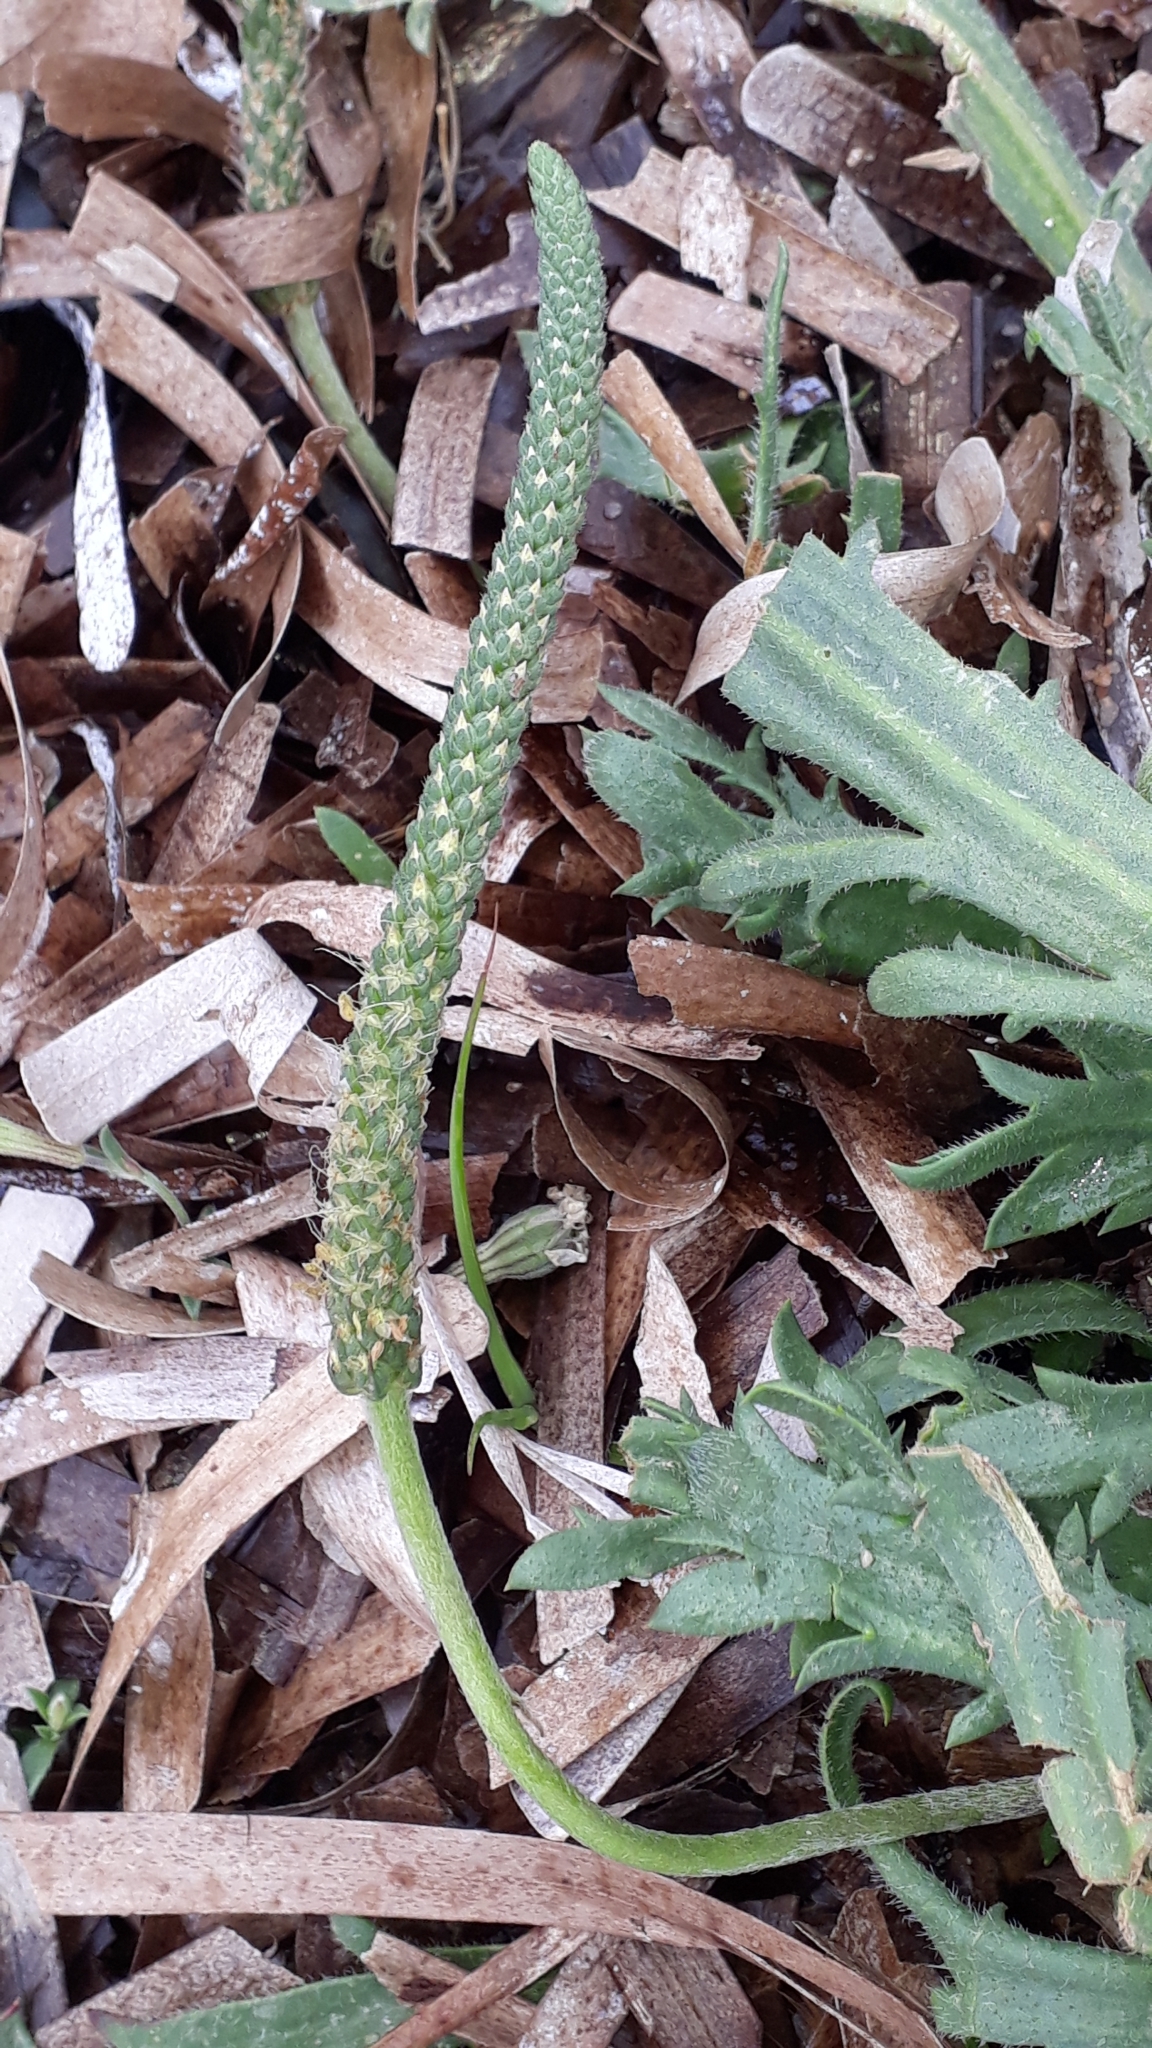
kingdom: Plantae
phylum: Tracheophyta
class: Magnoliopsida
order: Lamiales
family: Plantaginaceae
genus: Plantago
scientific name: Plantago coronopus
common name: Buck's-horn plantain
